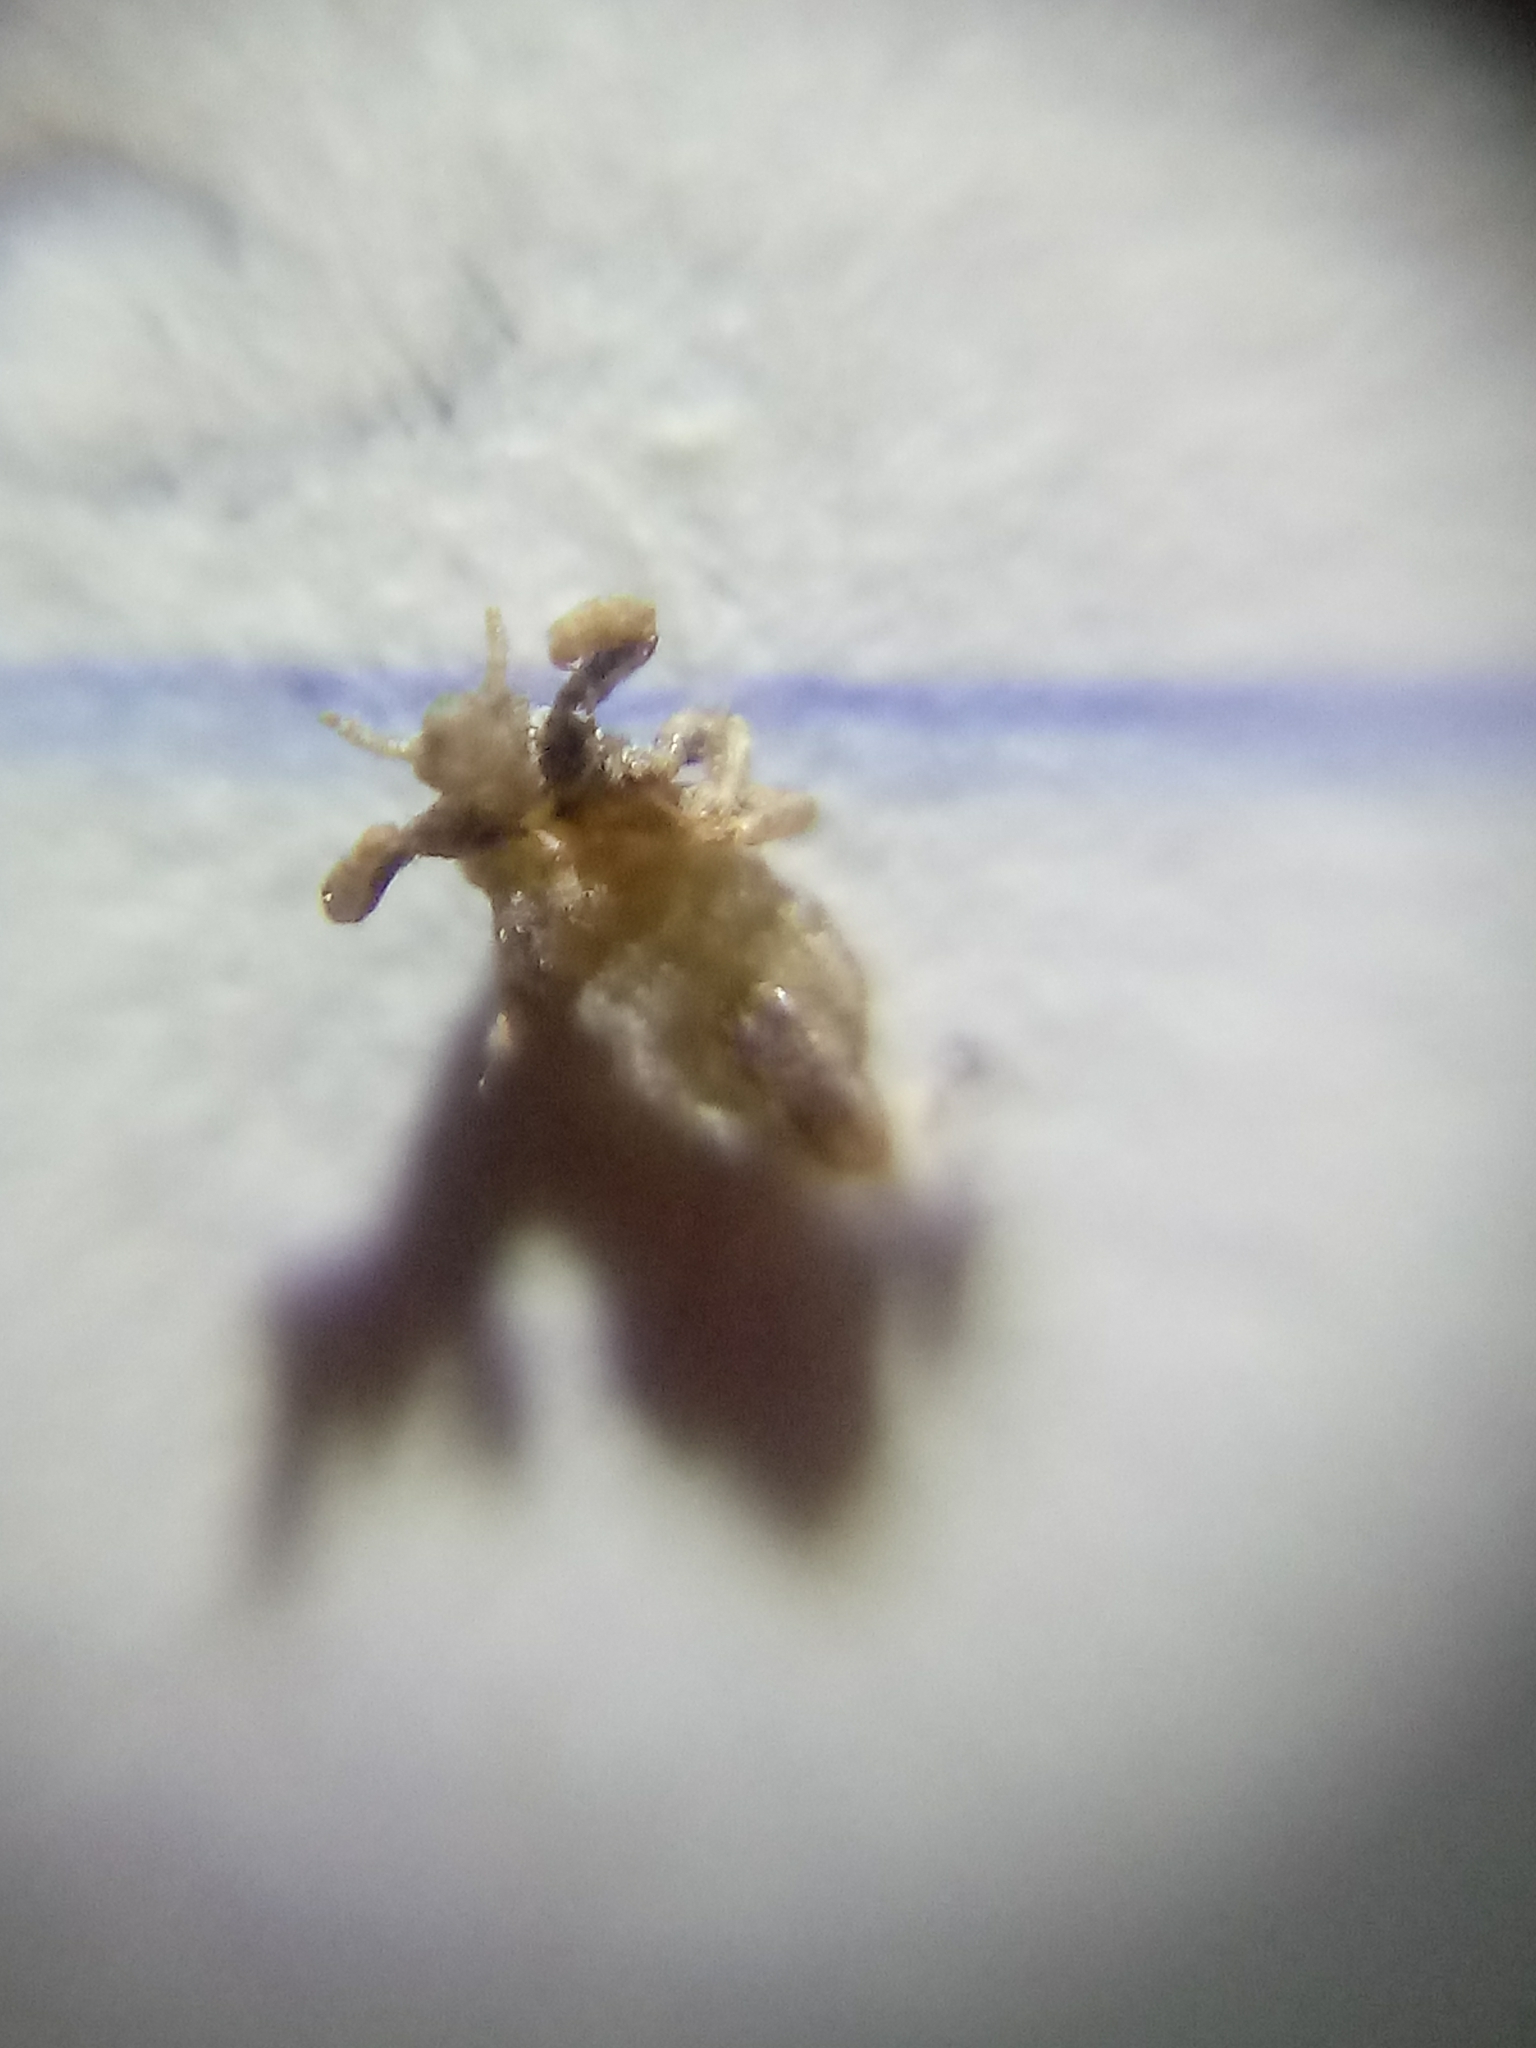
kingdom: Animalia
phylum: Arthropoda
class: Insecta
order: Psocodea
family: Pediculidae
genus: Pediculus
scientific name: Pediculus humanus
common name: Body louse
